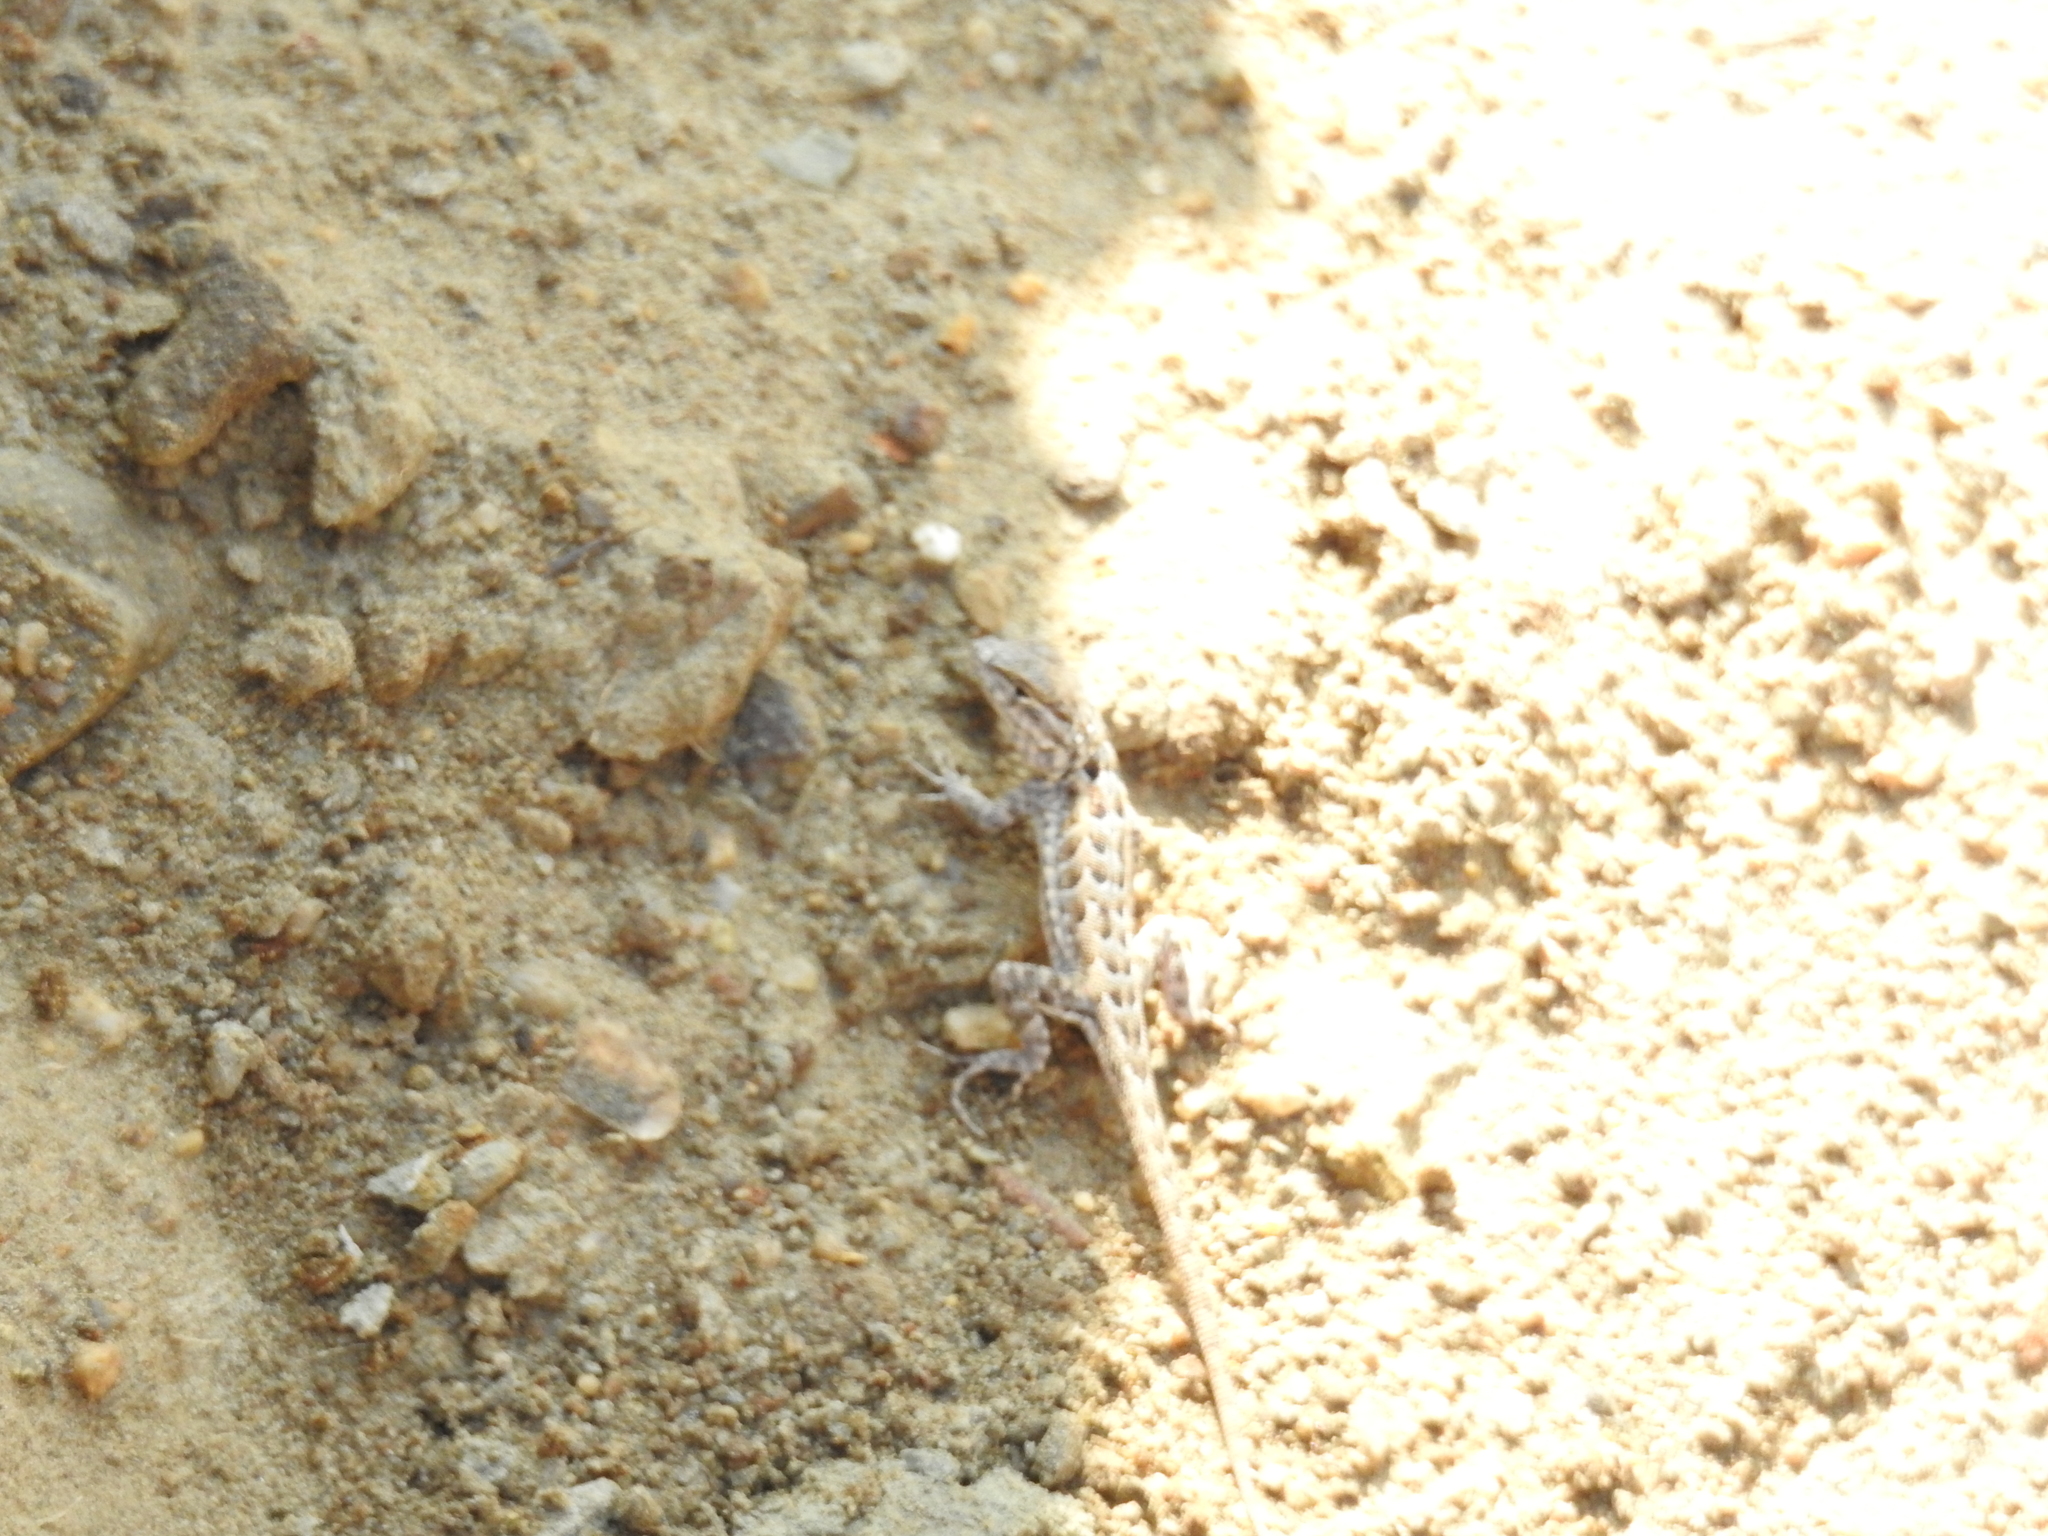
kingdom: Animalia
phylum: Chordata
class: Squamata
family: Phrynosomatidae
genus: Uta
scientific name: Uta stansburiana
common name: Side-blotched lizard
